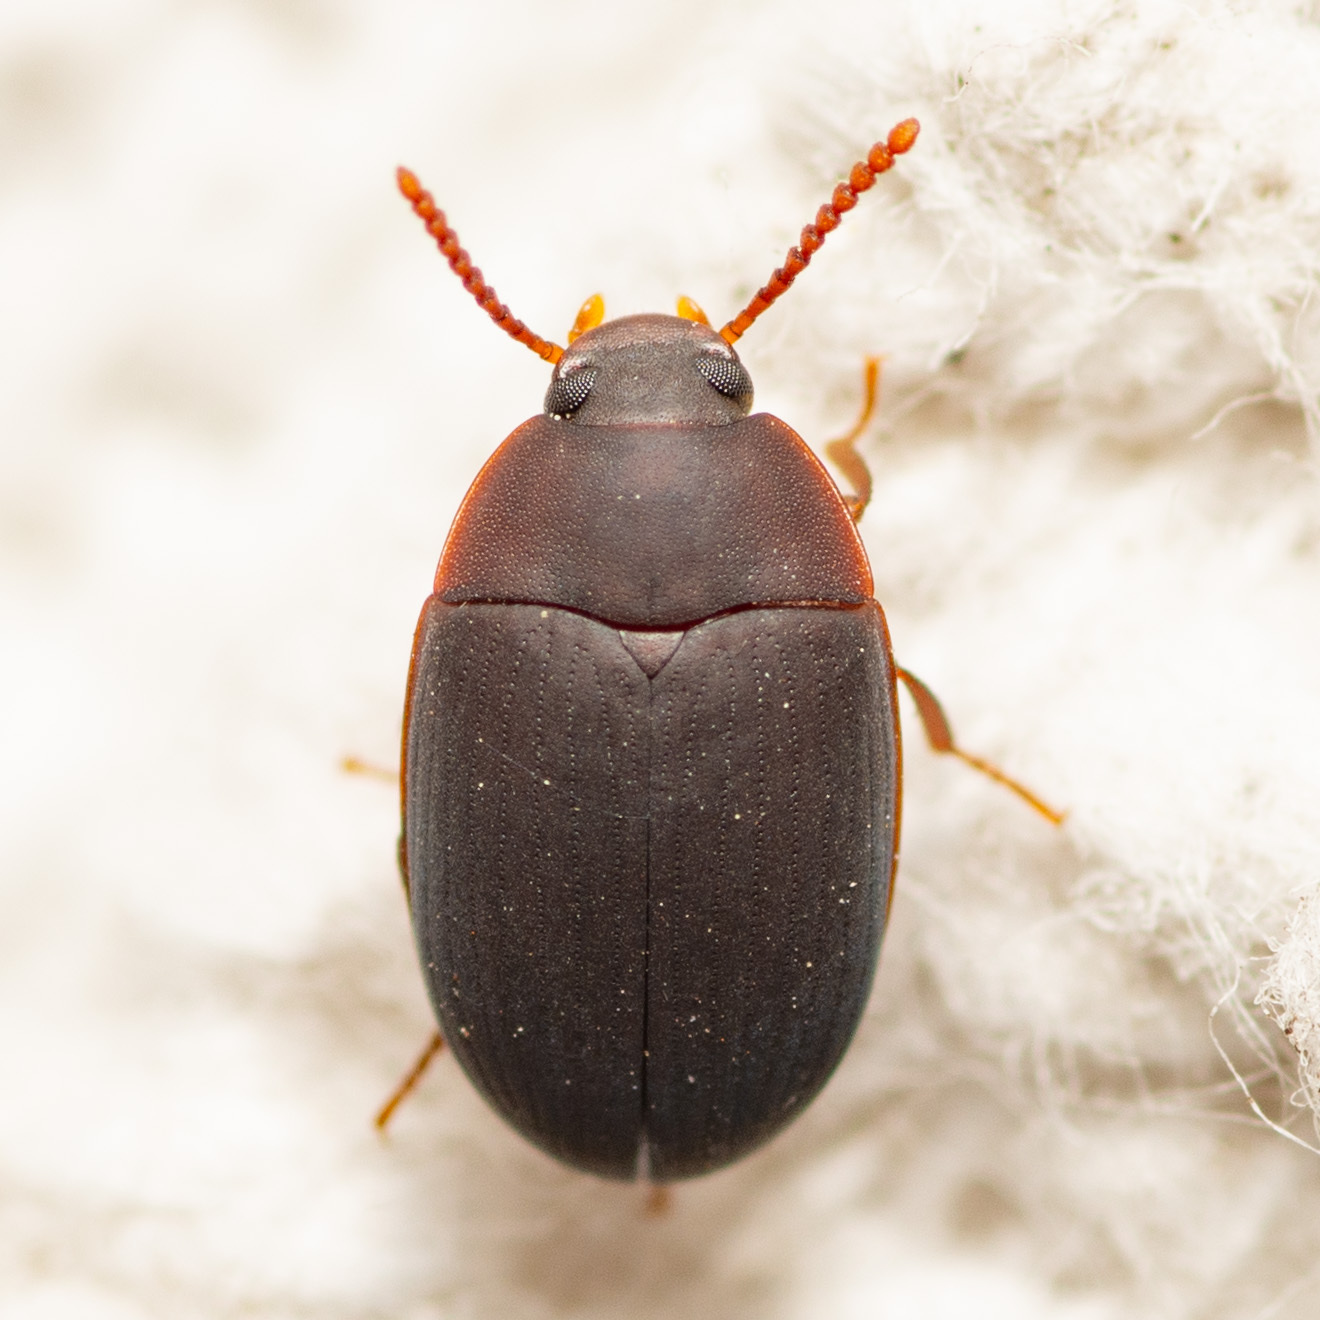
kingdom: Animalia
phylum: Arthropoda
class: Insecta
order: Coleoptera
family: Tenebrionidae
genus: Platydema
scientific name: Platydema ruficornis
